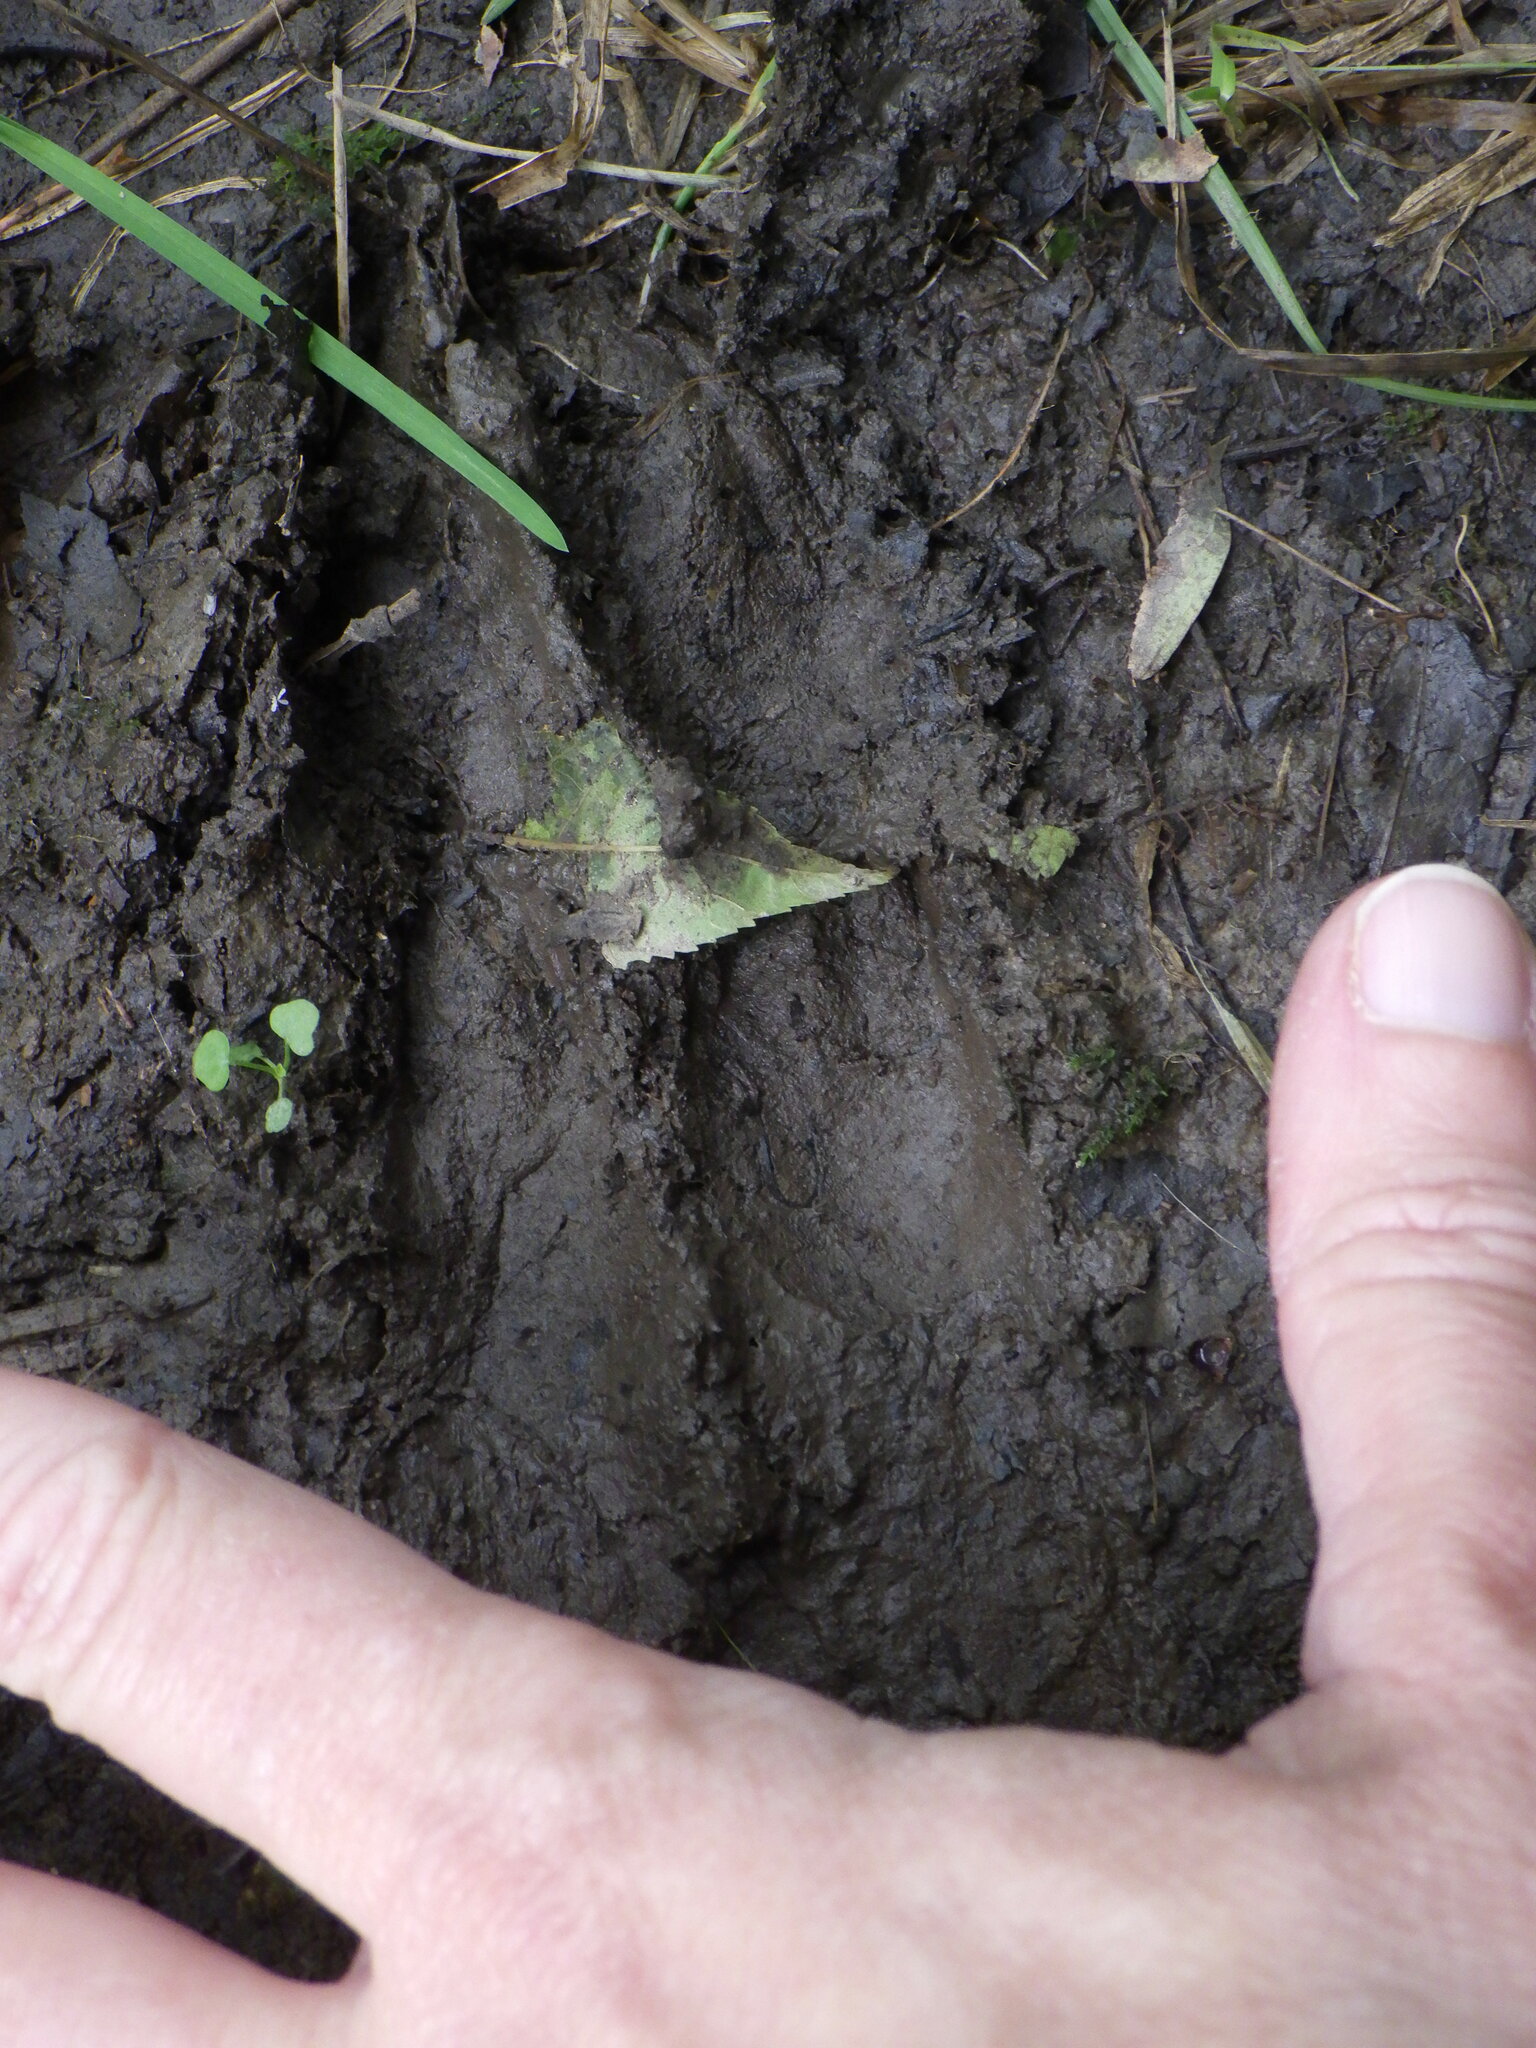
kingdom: Animalia
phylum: Chordata
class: Mammalia
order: Artiodactyla
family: Cervidae
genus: Odocoileus
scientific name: Odocoileus virginianus
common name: White-tailed deer
